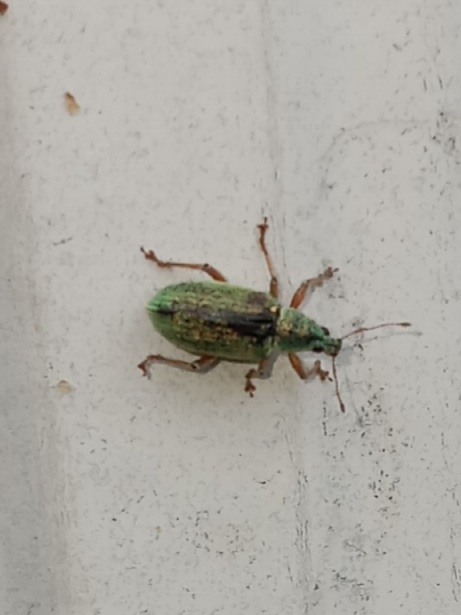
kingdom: Animalia
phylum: Arthropoda
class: Insecta
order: Coleoptera
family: Curculionidae
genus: Polydrusus
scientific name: Polydrusus formosus
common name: Weevil
